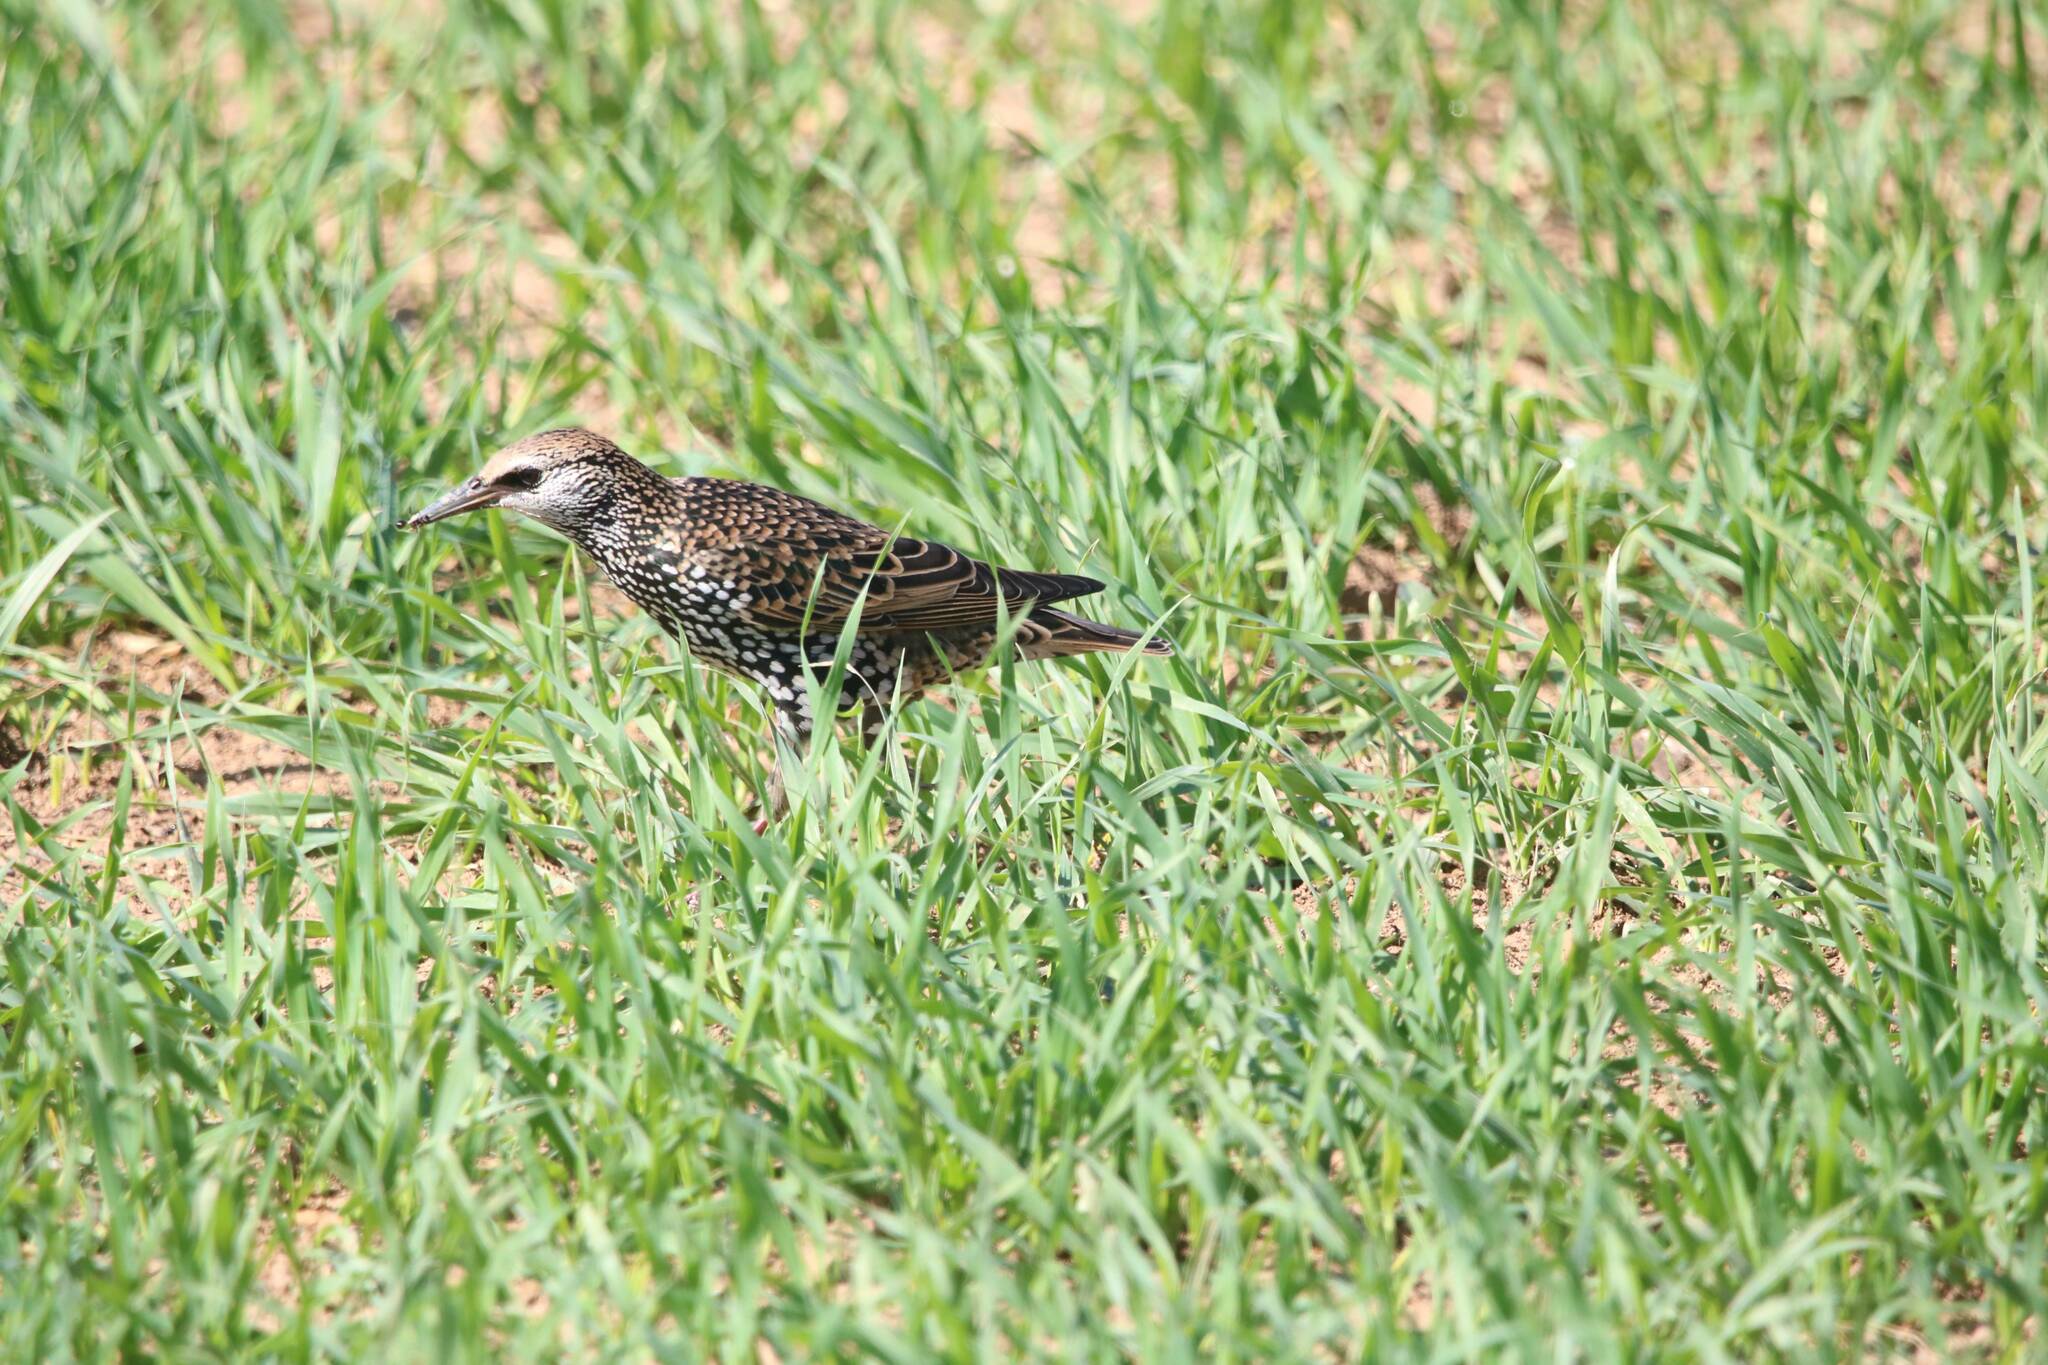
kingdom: Animalia
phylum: Chordata
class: Aves
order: Passeriformes
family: Sturnidae
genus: Sturnus
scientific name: Sturnus vulgaris
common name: Common starling
